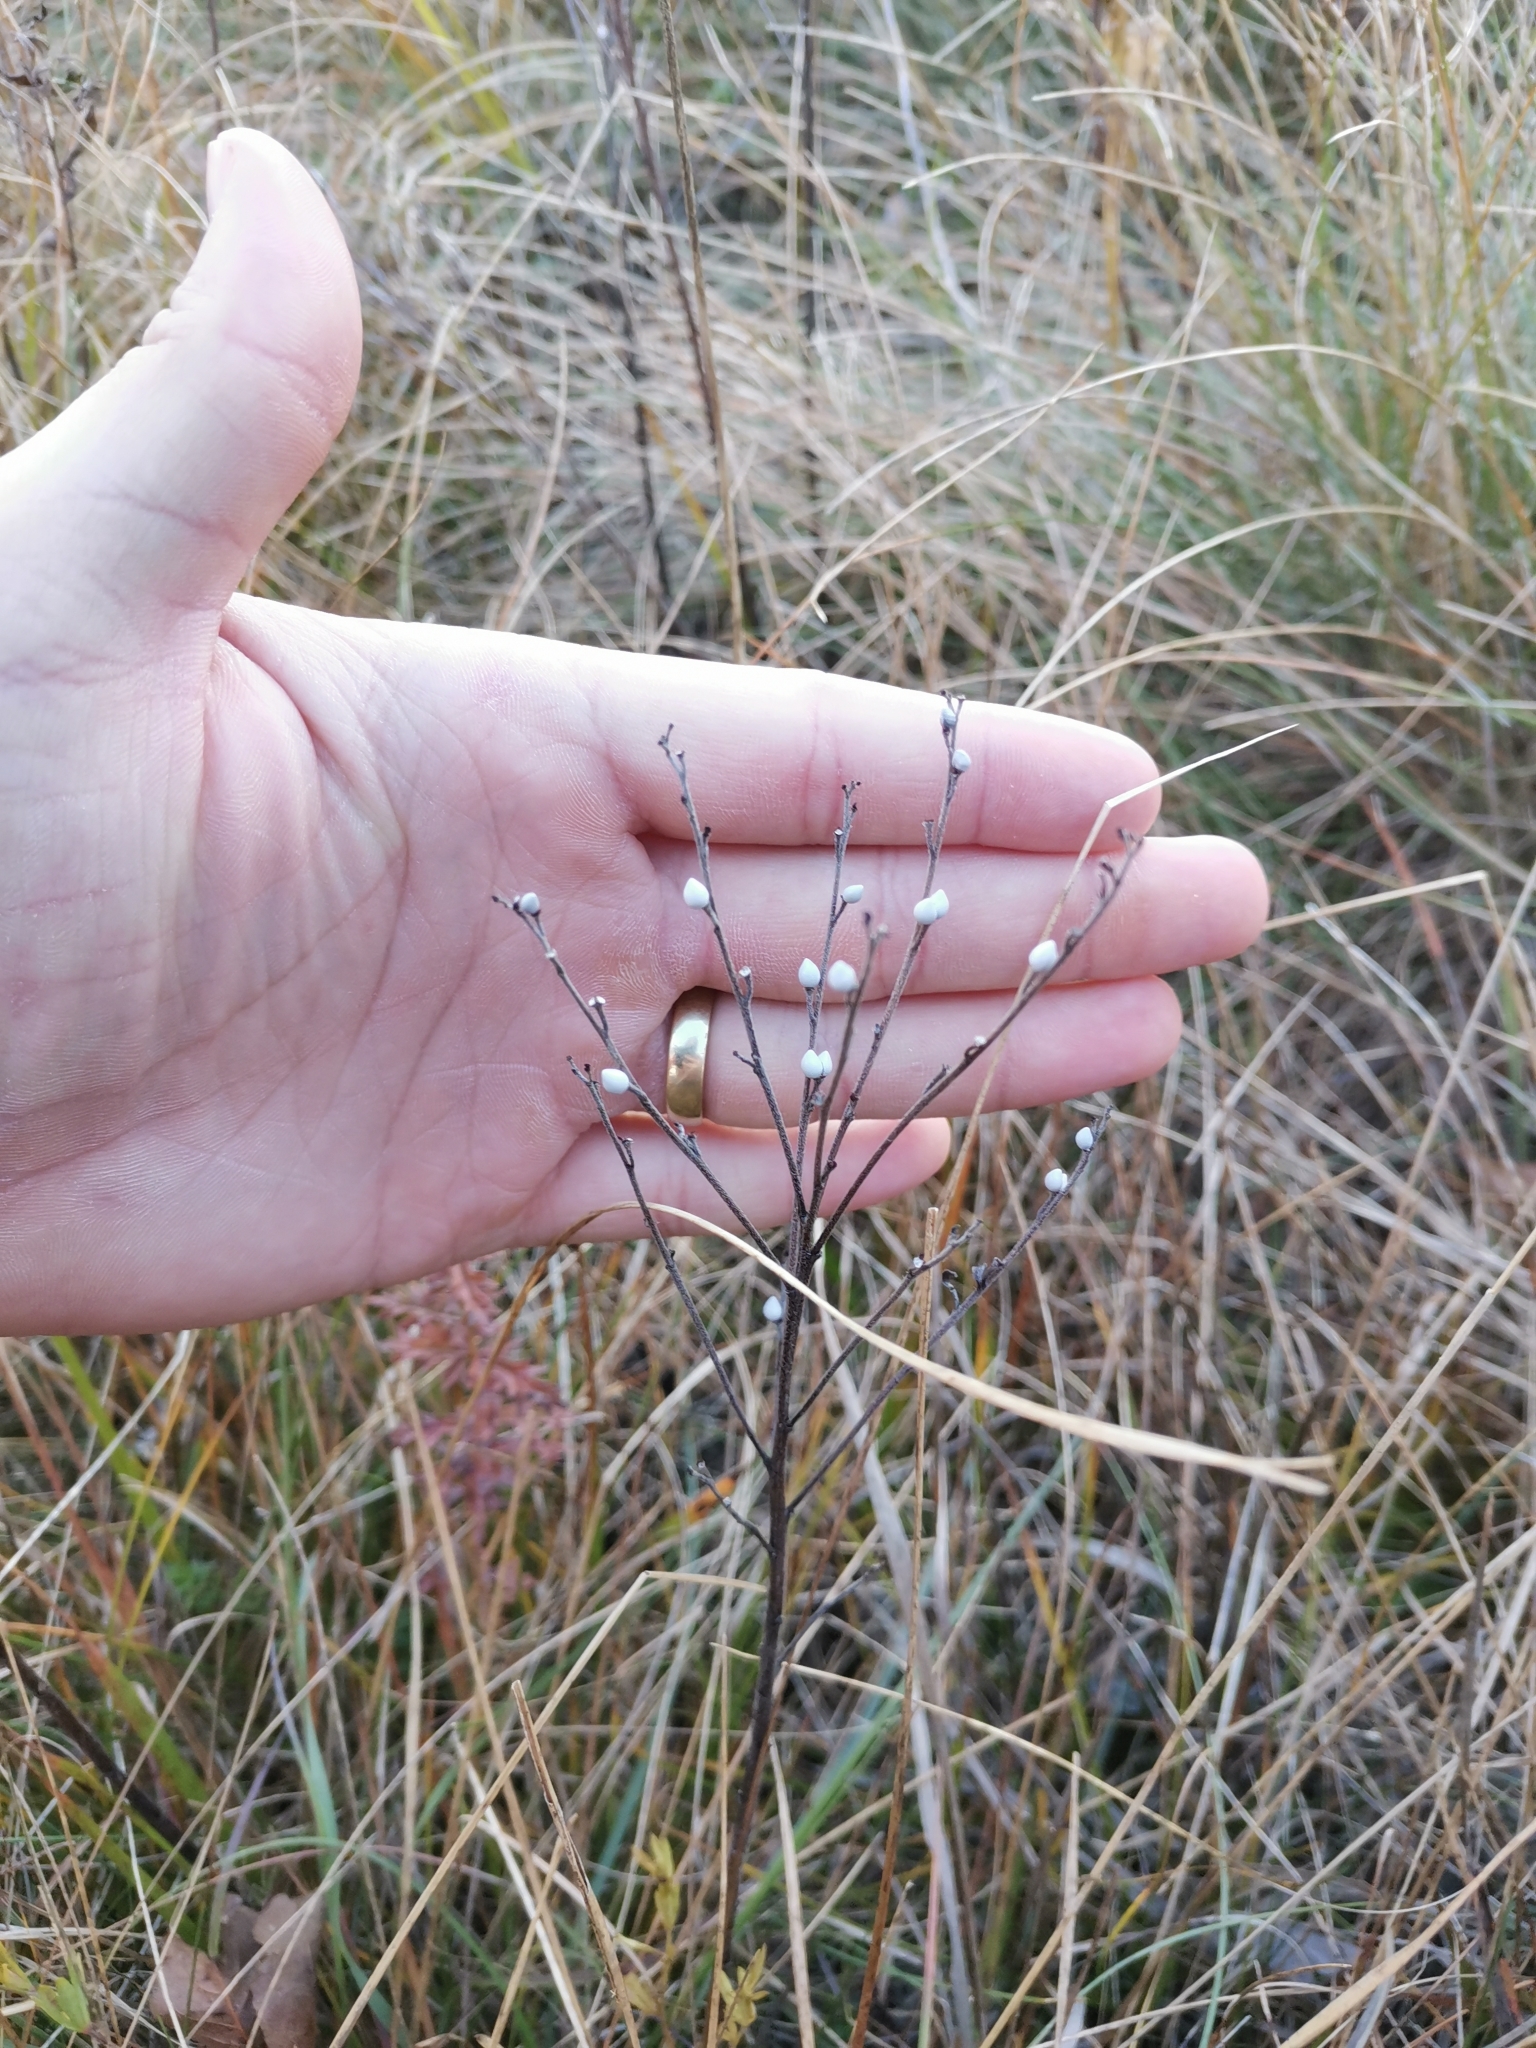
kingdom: Plantae
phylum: Tracheophyta
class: Magnoliopsida
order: Boraginales
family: Boraginaceae
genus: Aegonychon
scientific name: Aegonychon purpurocaeruleum
